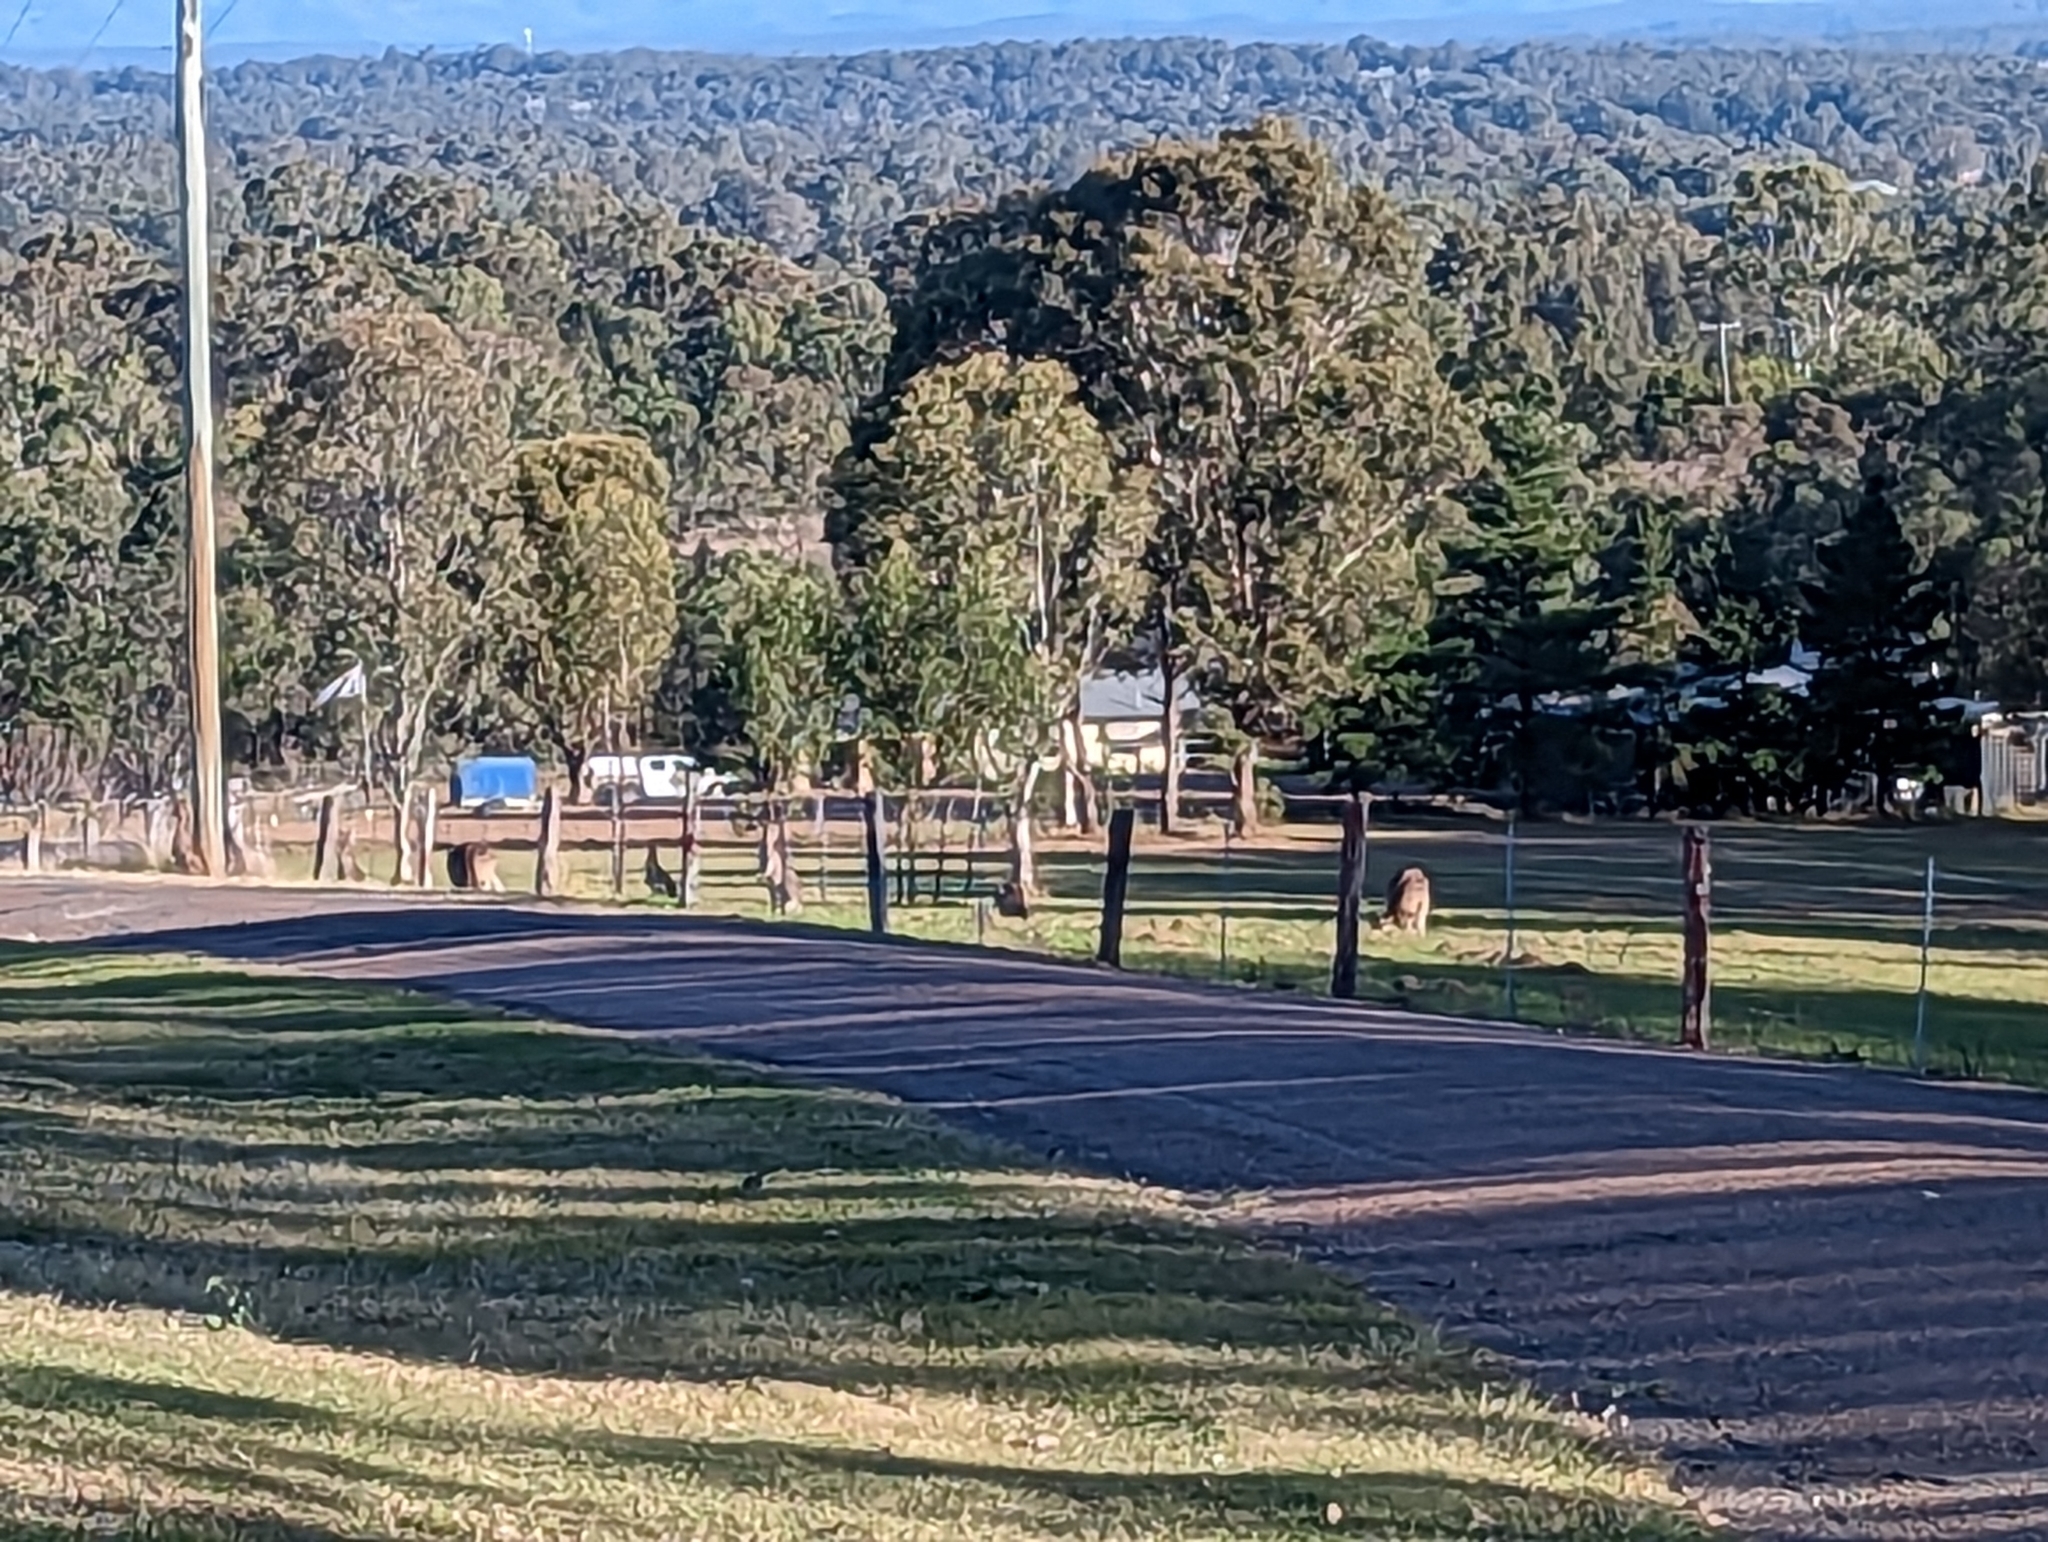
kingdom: Animalia
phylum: Chordata
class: Mammalia
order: Diprotodontia
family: Macropodidae
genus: Macropus
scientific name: Macropus giganteus
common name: Eastern grey kangaroo
